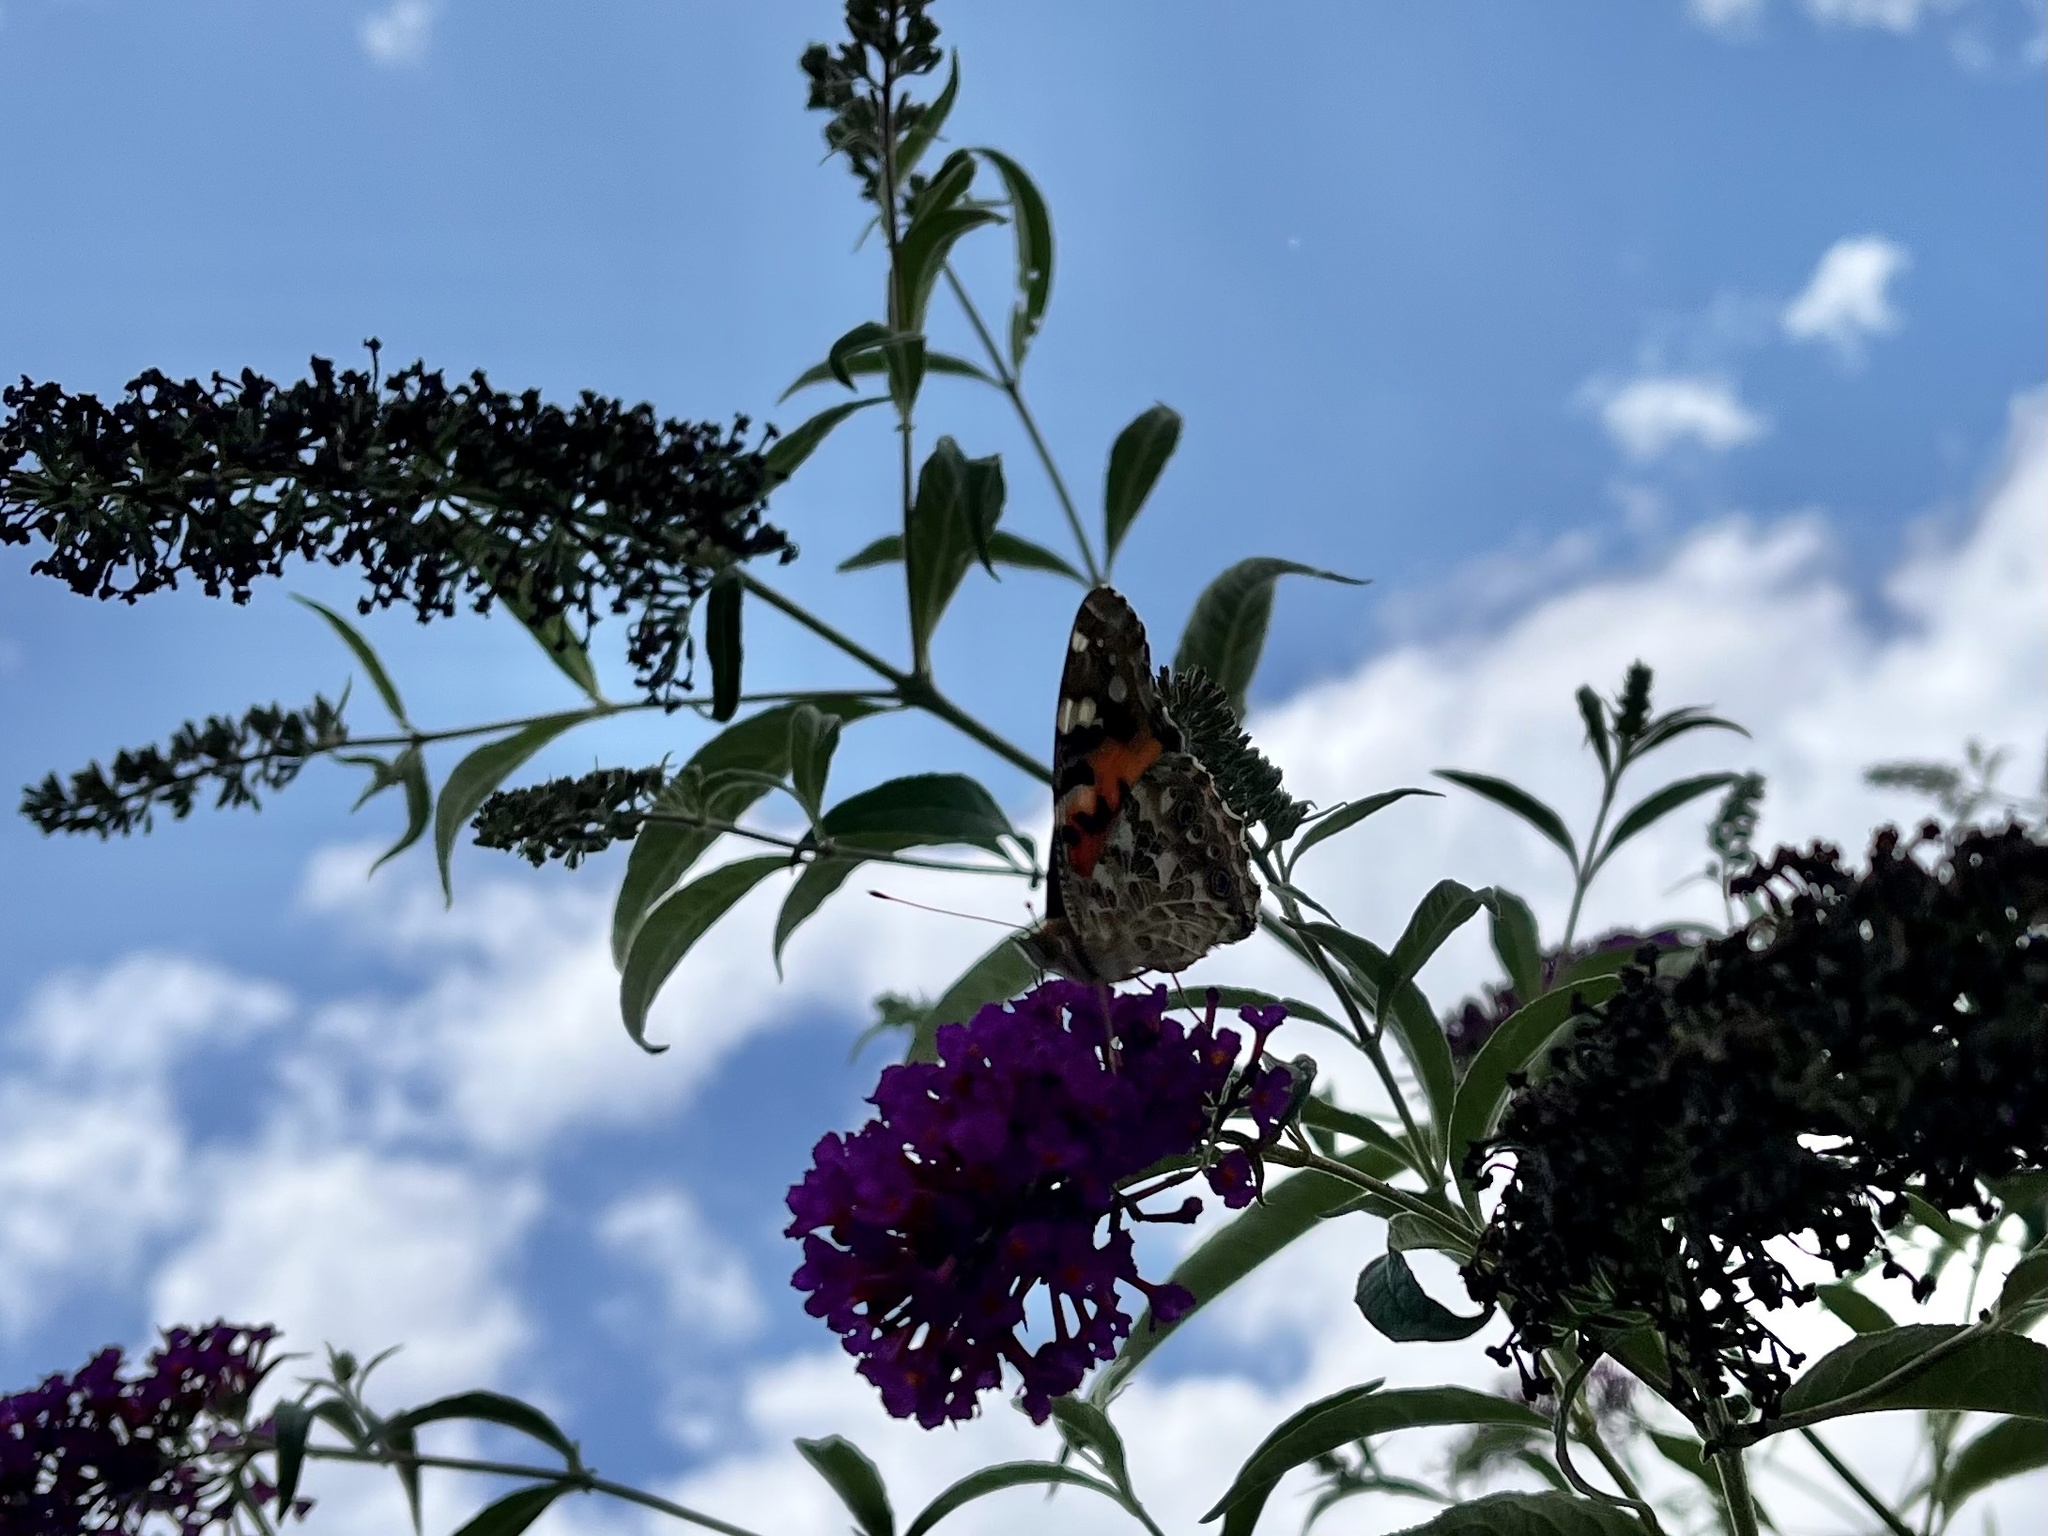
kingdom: Animalia
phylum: Arthropoda
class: Insecta
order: Lepidoptera
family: Nymphalidae
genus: Vanessa
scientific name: Vanessa cardui
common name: Painted lady
